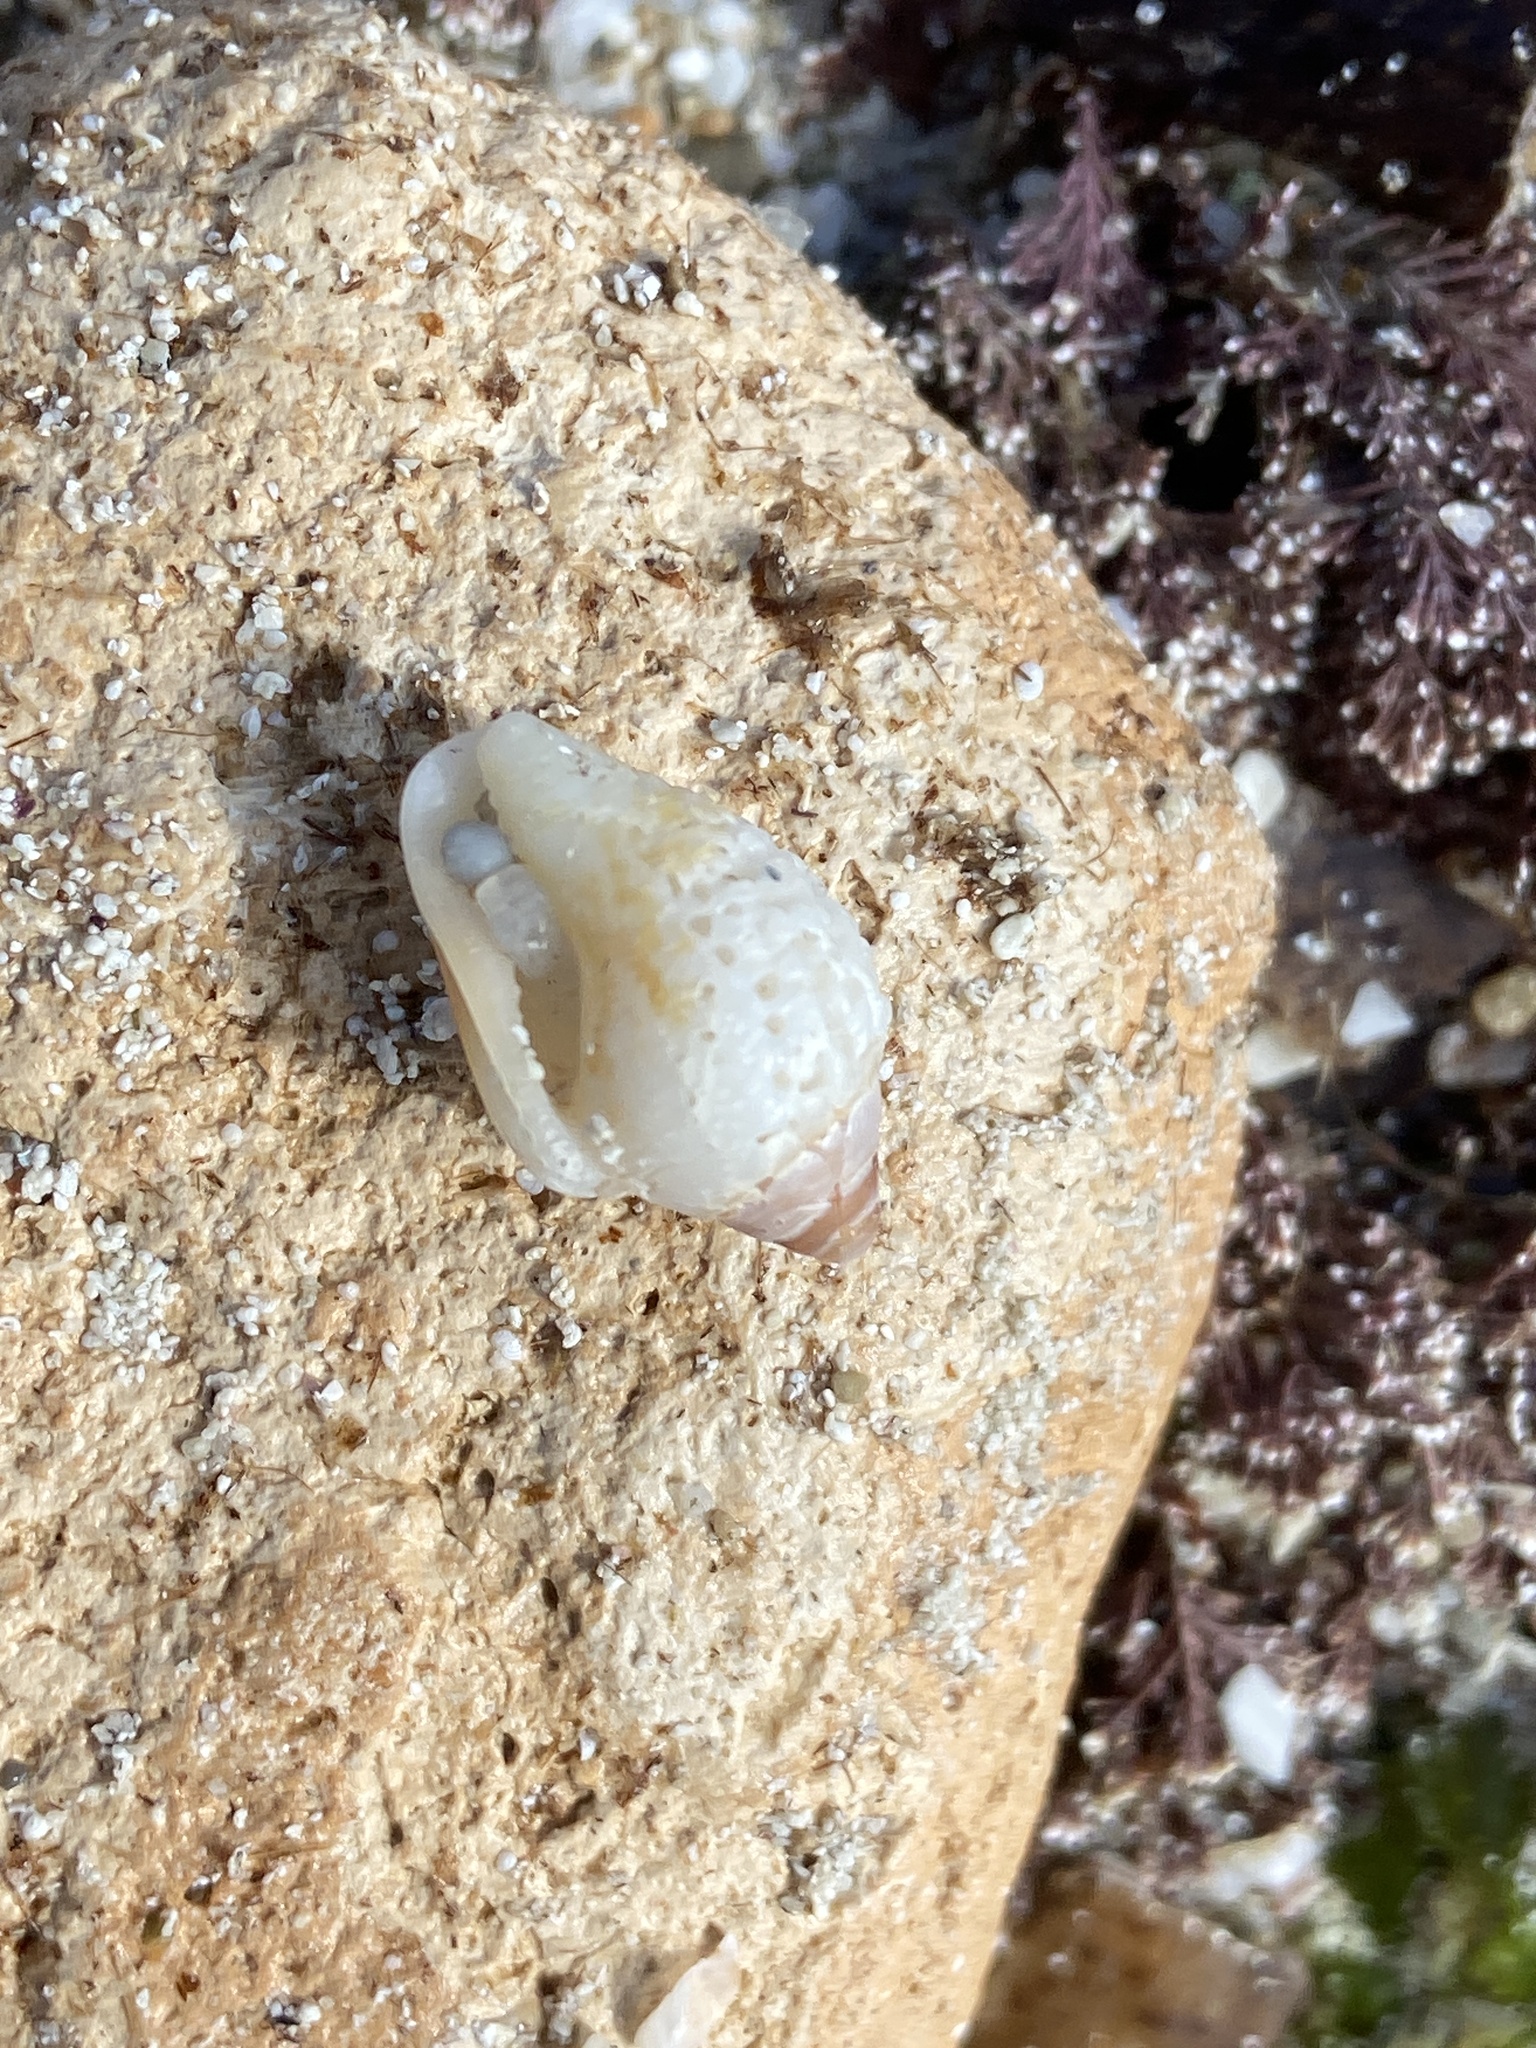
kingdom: Animalia
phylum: Mollusca
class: Gastropoda
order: Neogastropoda
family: Columbellidae
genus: Columbella
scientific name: Columbella rustica
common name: Rustic dove shell
